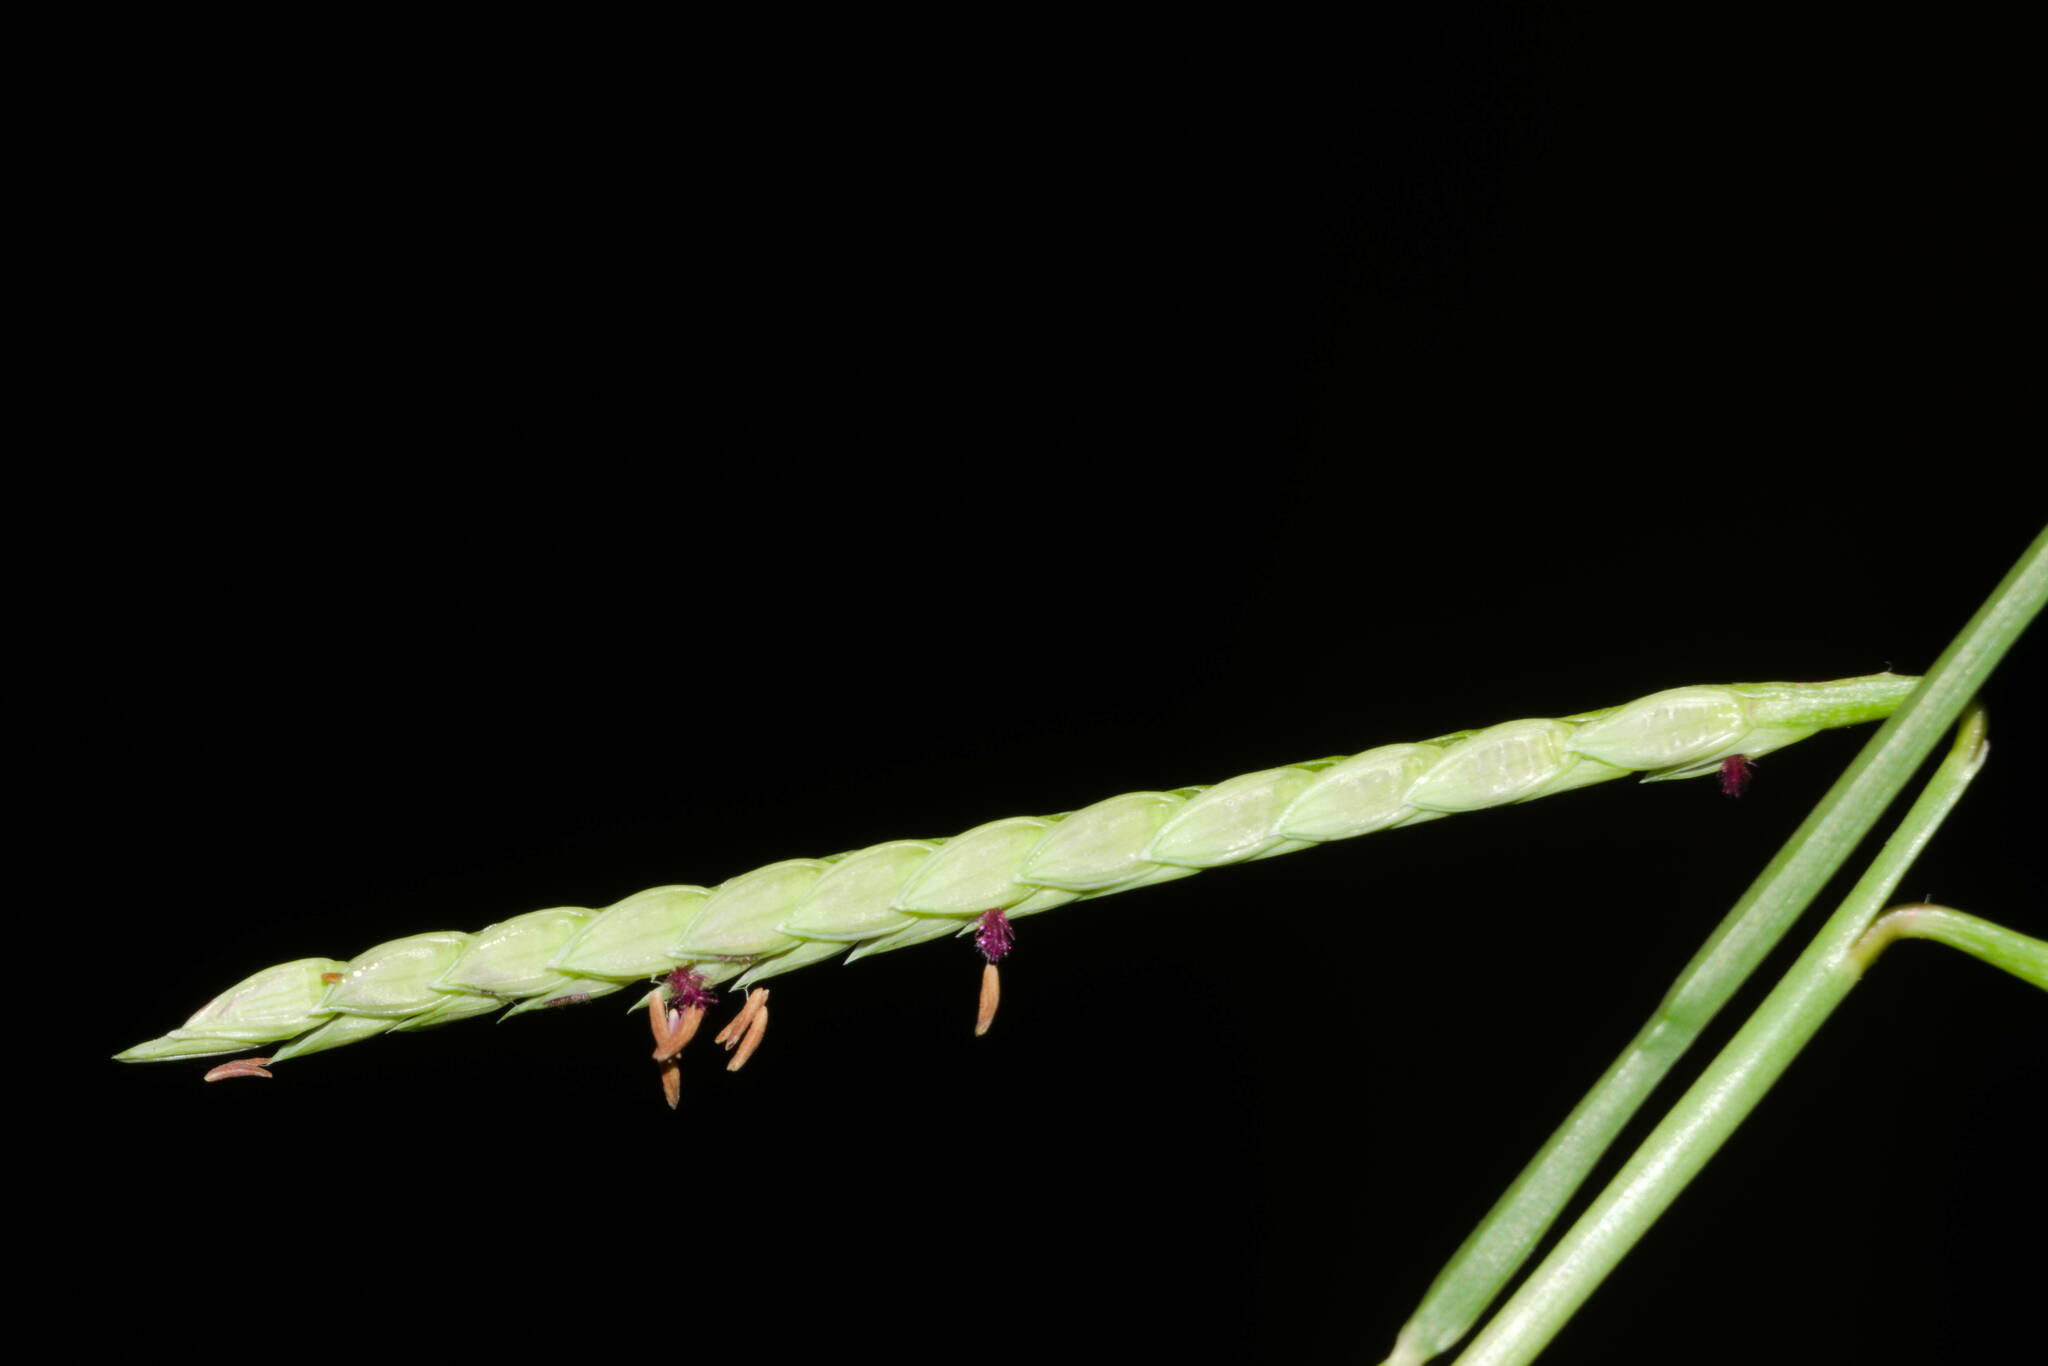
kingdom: Plantae
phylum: Tracheophyta
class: Liliopsida
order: Poales
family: Poaceae
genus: Paspalum
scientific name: Paspalum vaginatum
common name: Seashore paspalum
